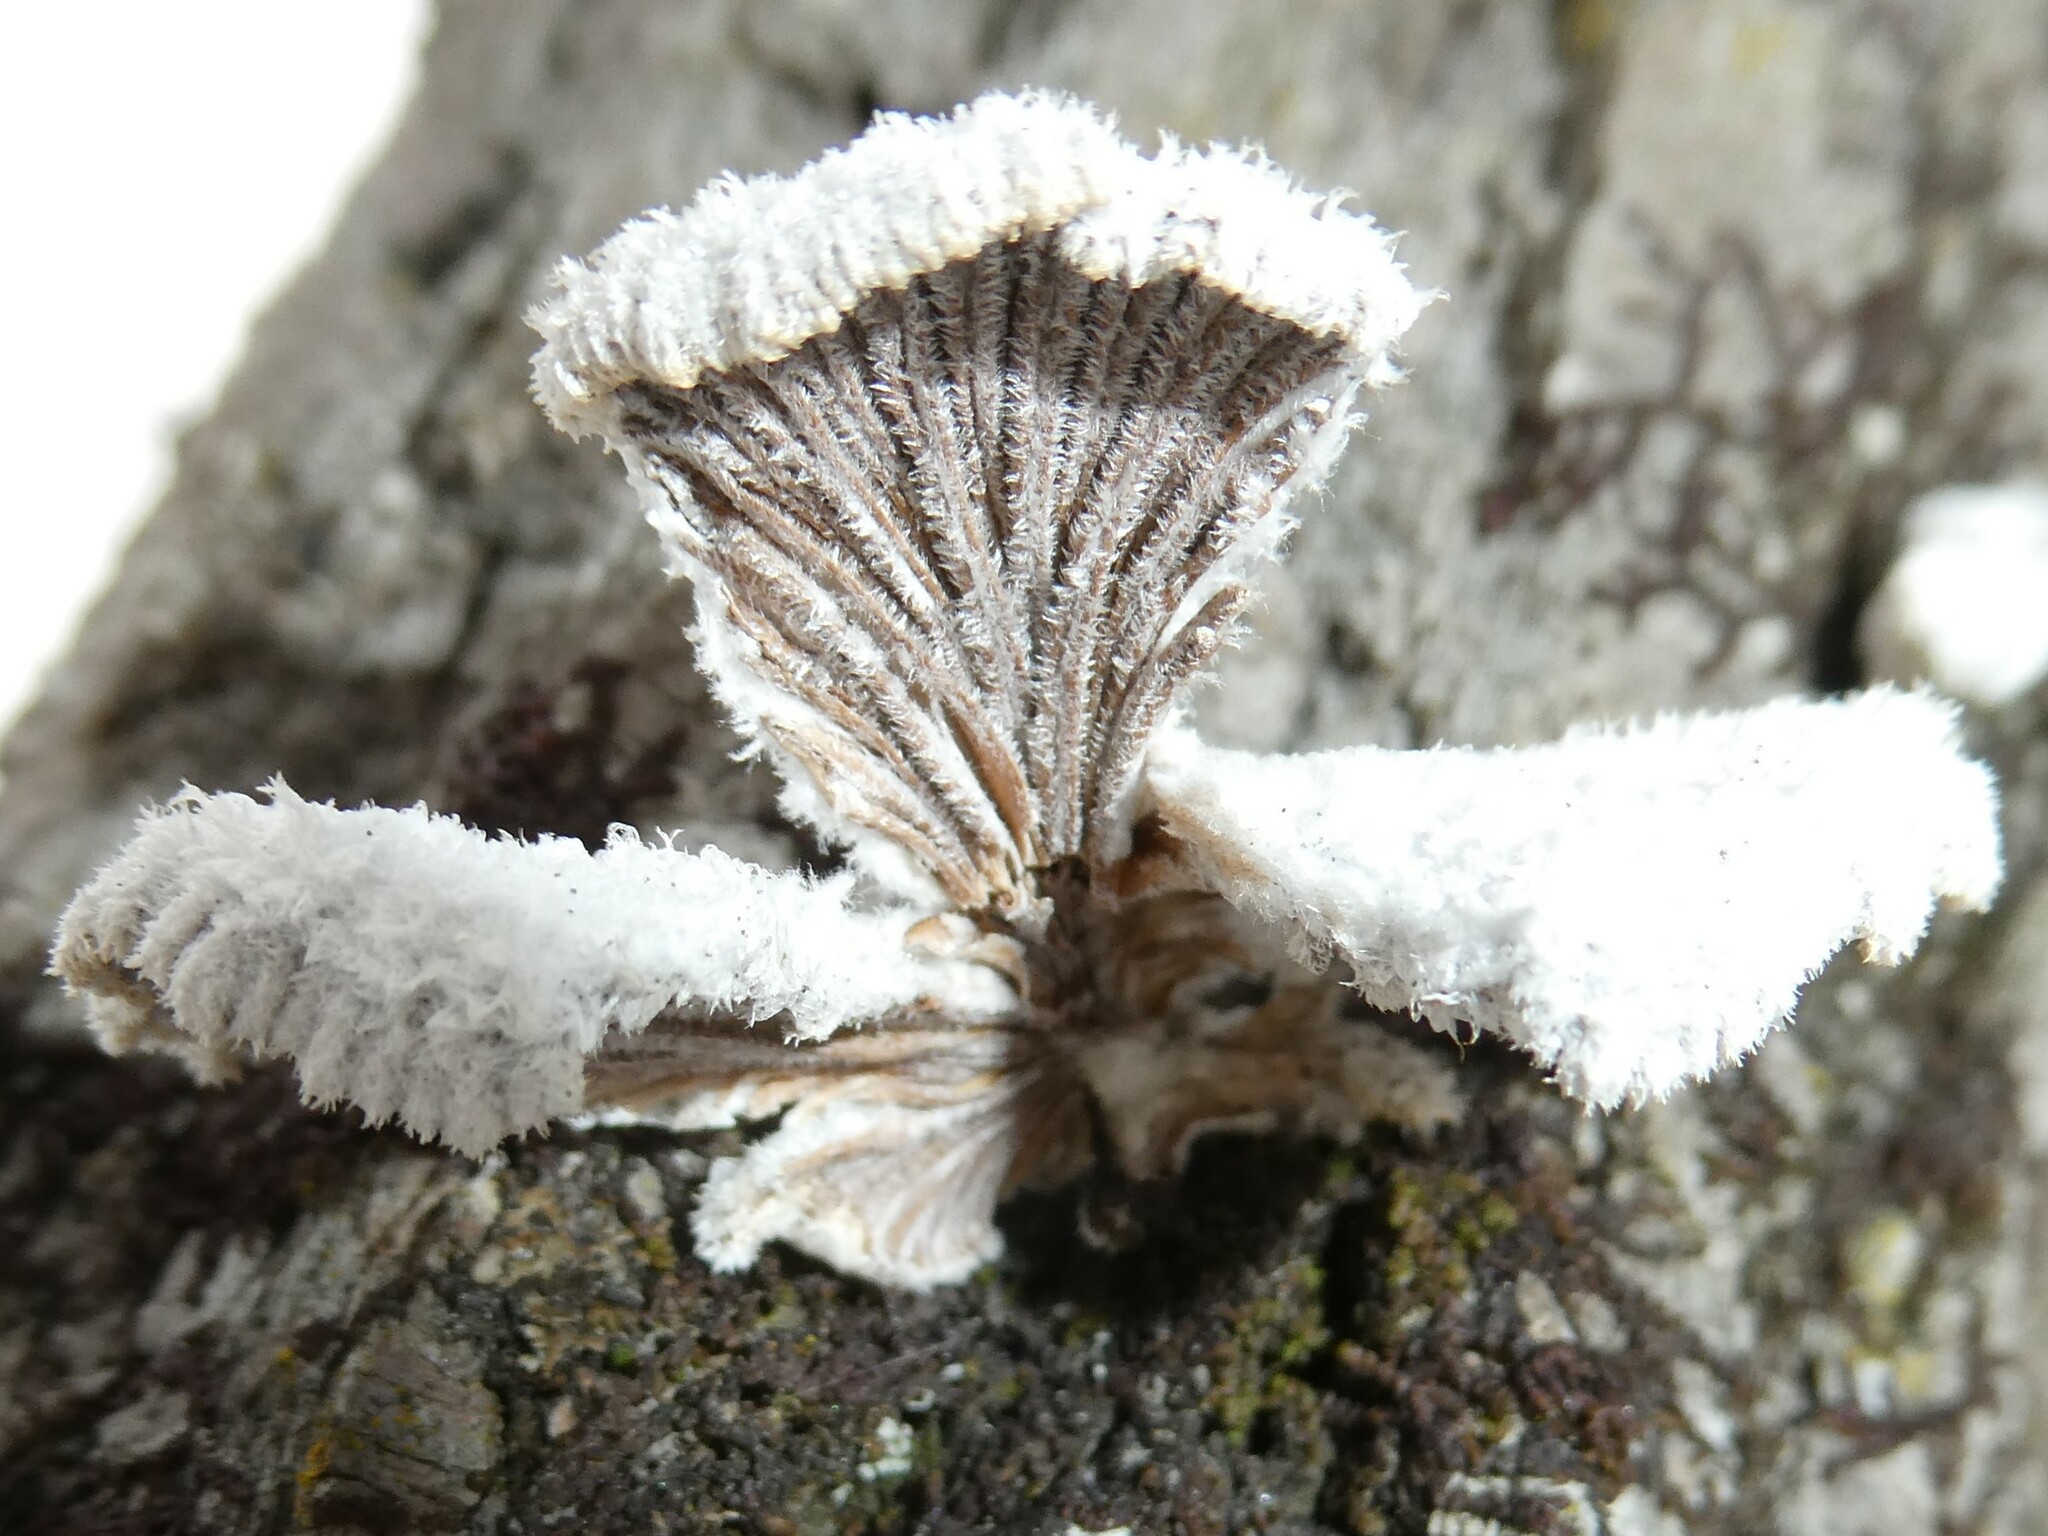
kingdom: Fungi
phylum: Basidiomycota
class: Agaricomycetes
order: Agaricales
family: Schizophyllaceae
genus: Schizophyllum
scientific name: Schizophyllum commune
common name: Common porecrust
